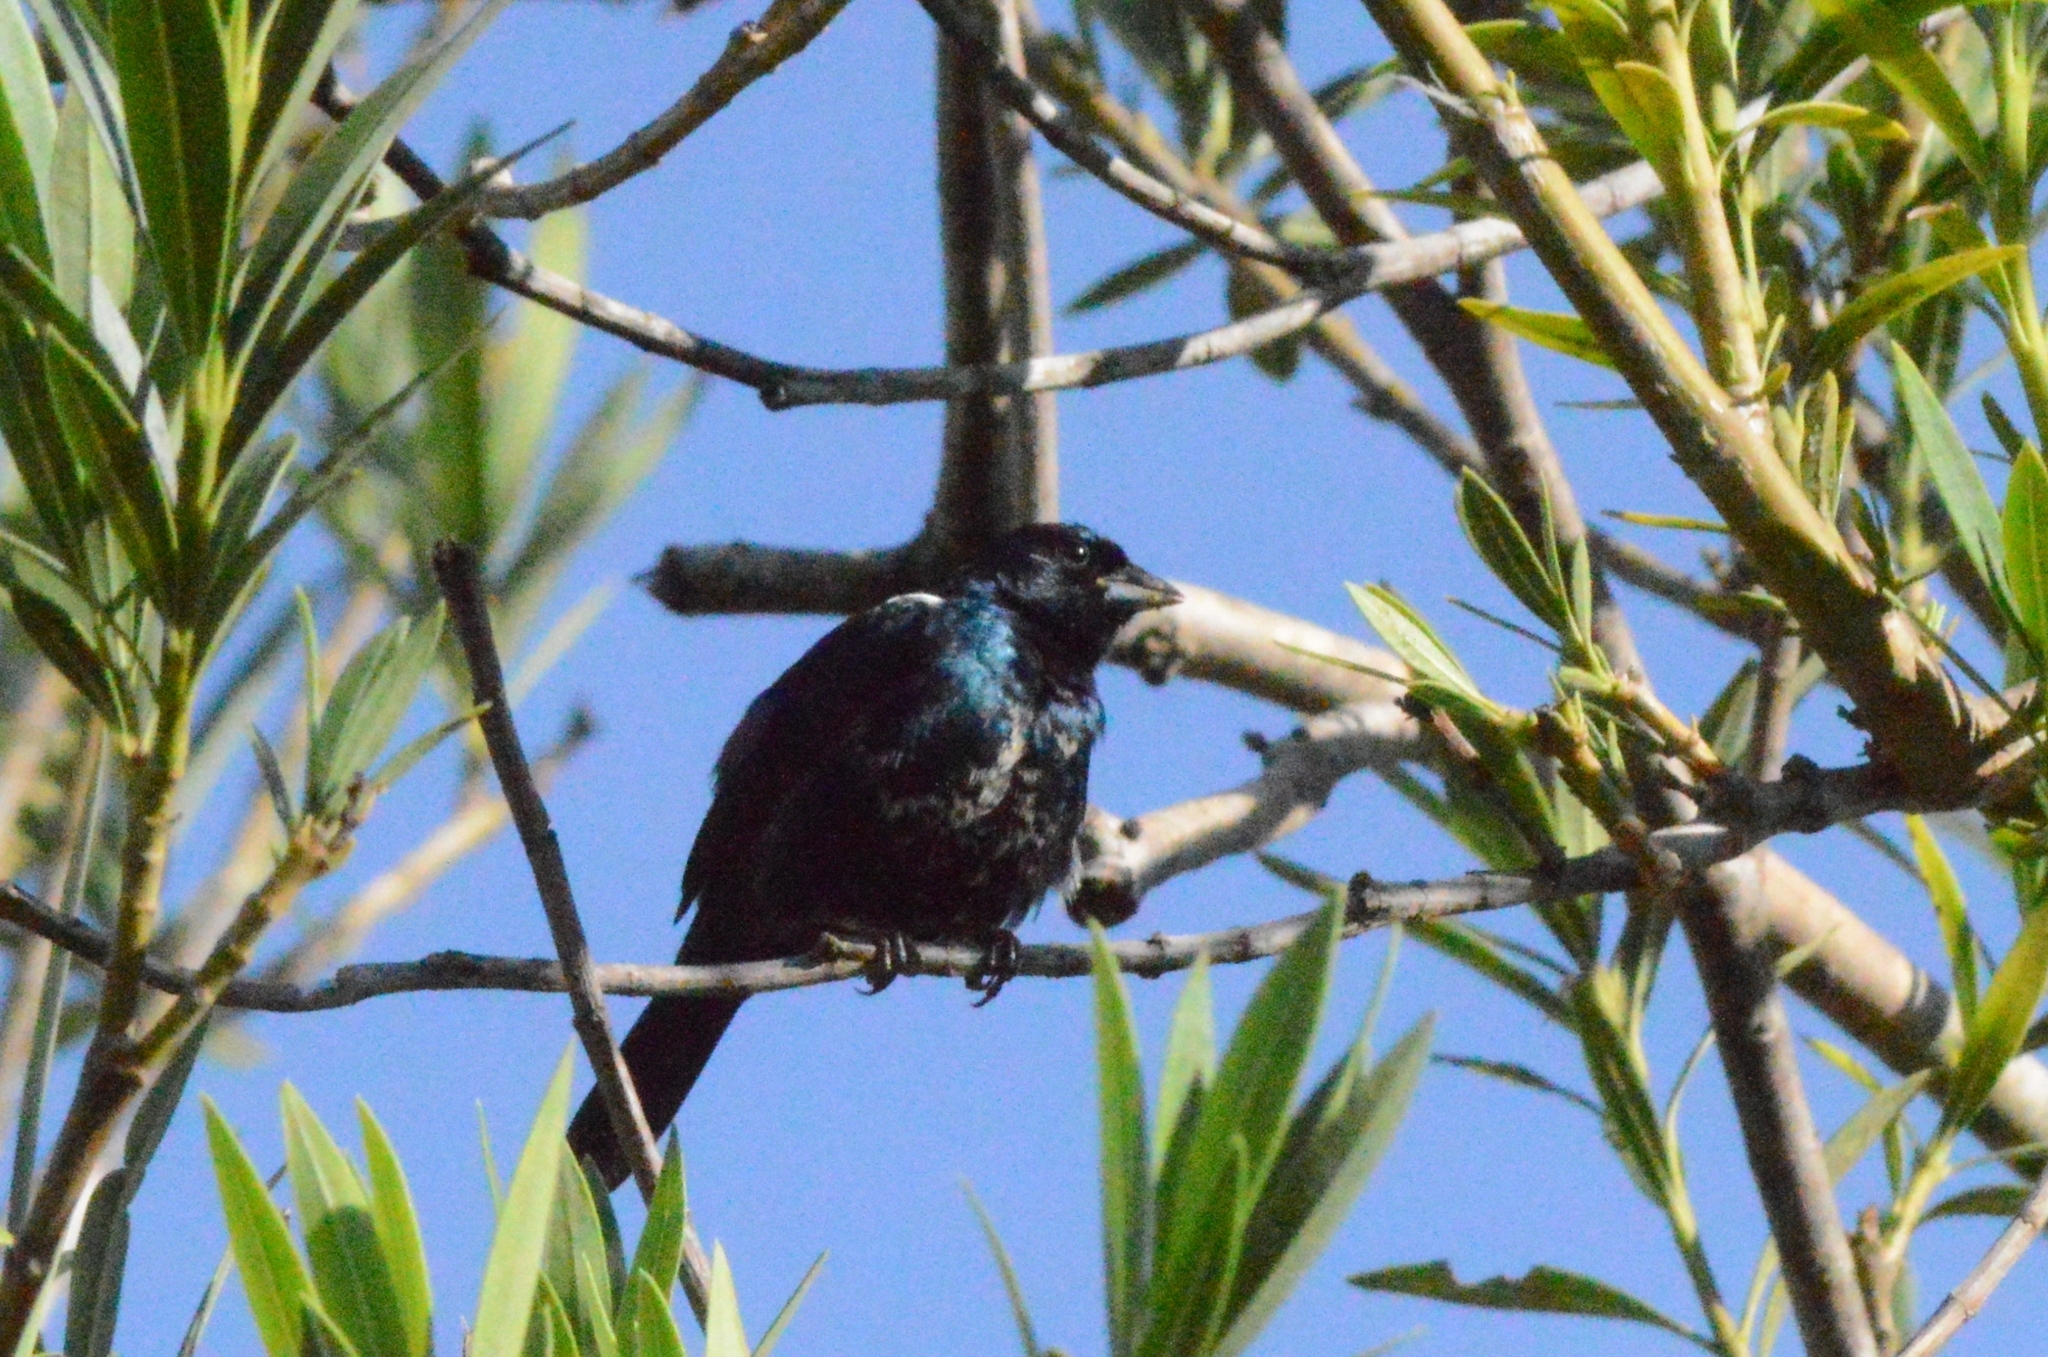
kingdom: Animalia
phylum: Chordata
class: Aves
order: Passeriformes
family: Thraupidae
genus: Volatinia
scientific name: Volatinia jacarina
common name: Blue-black grassquit
